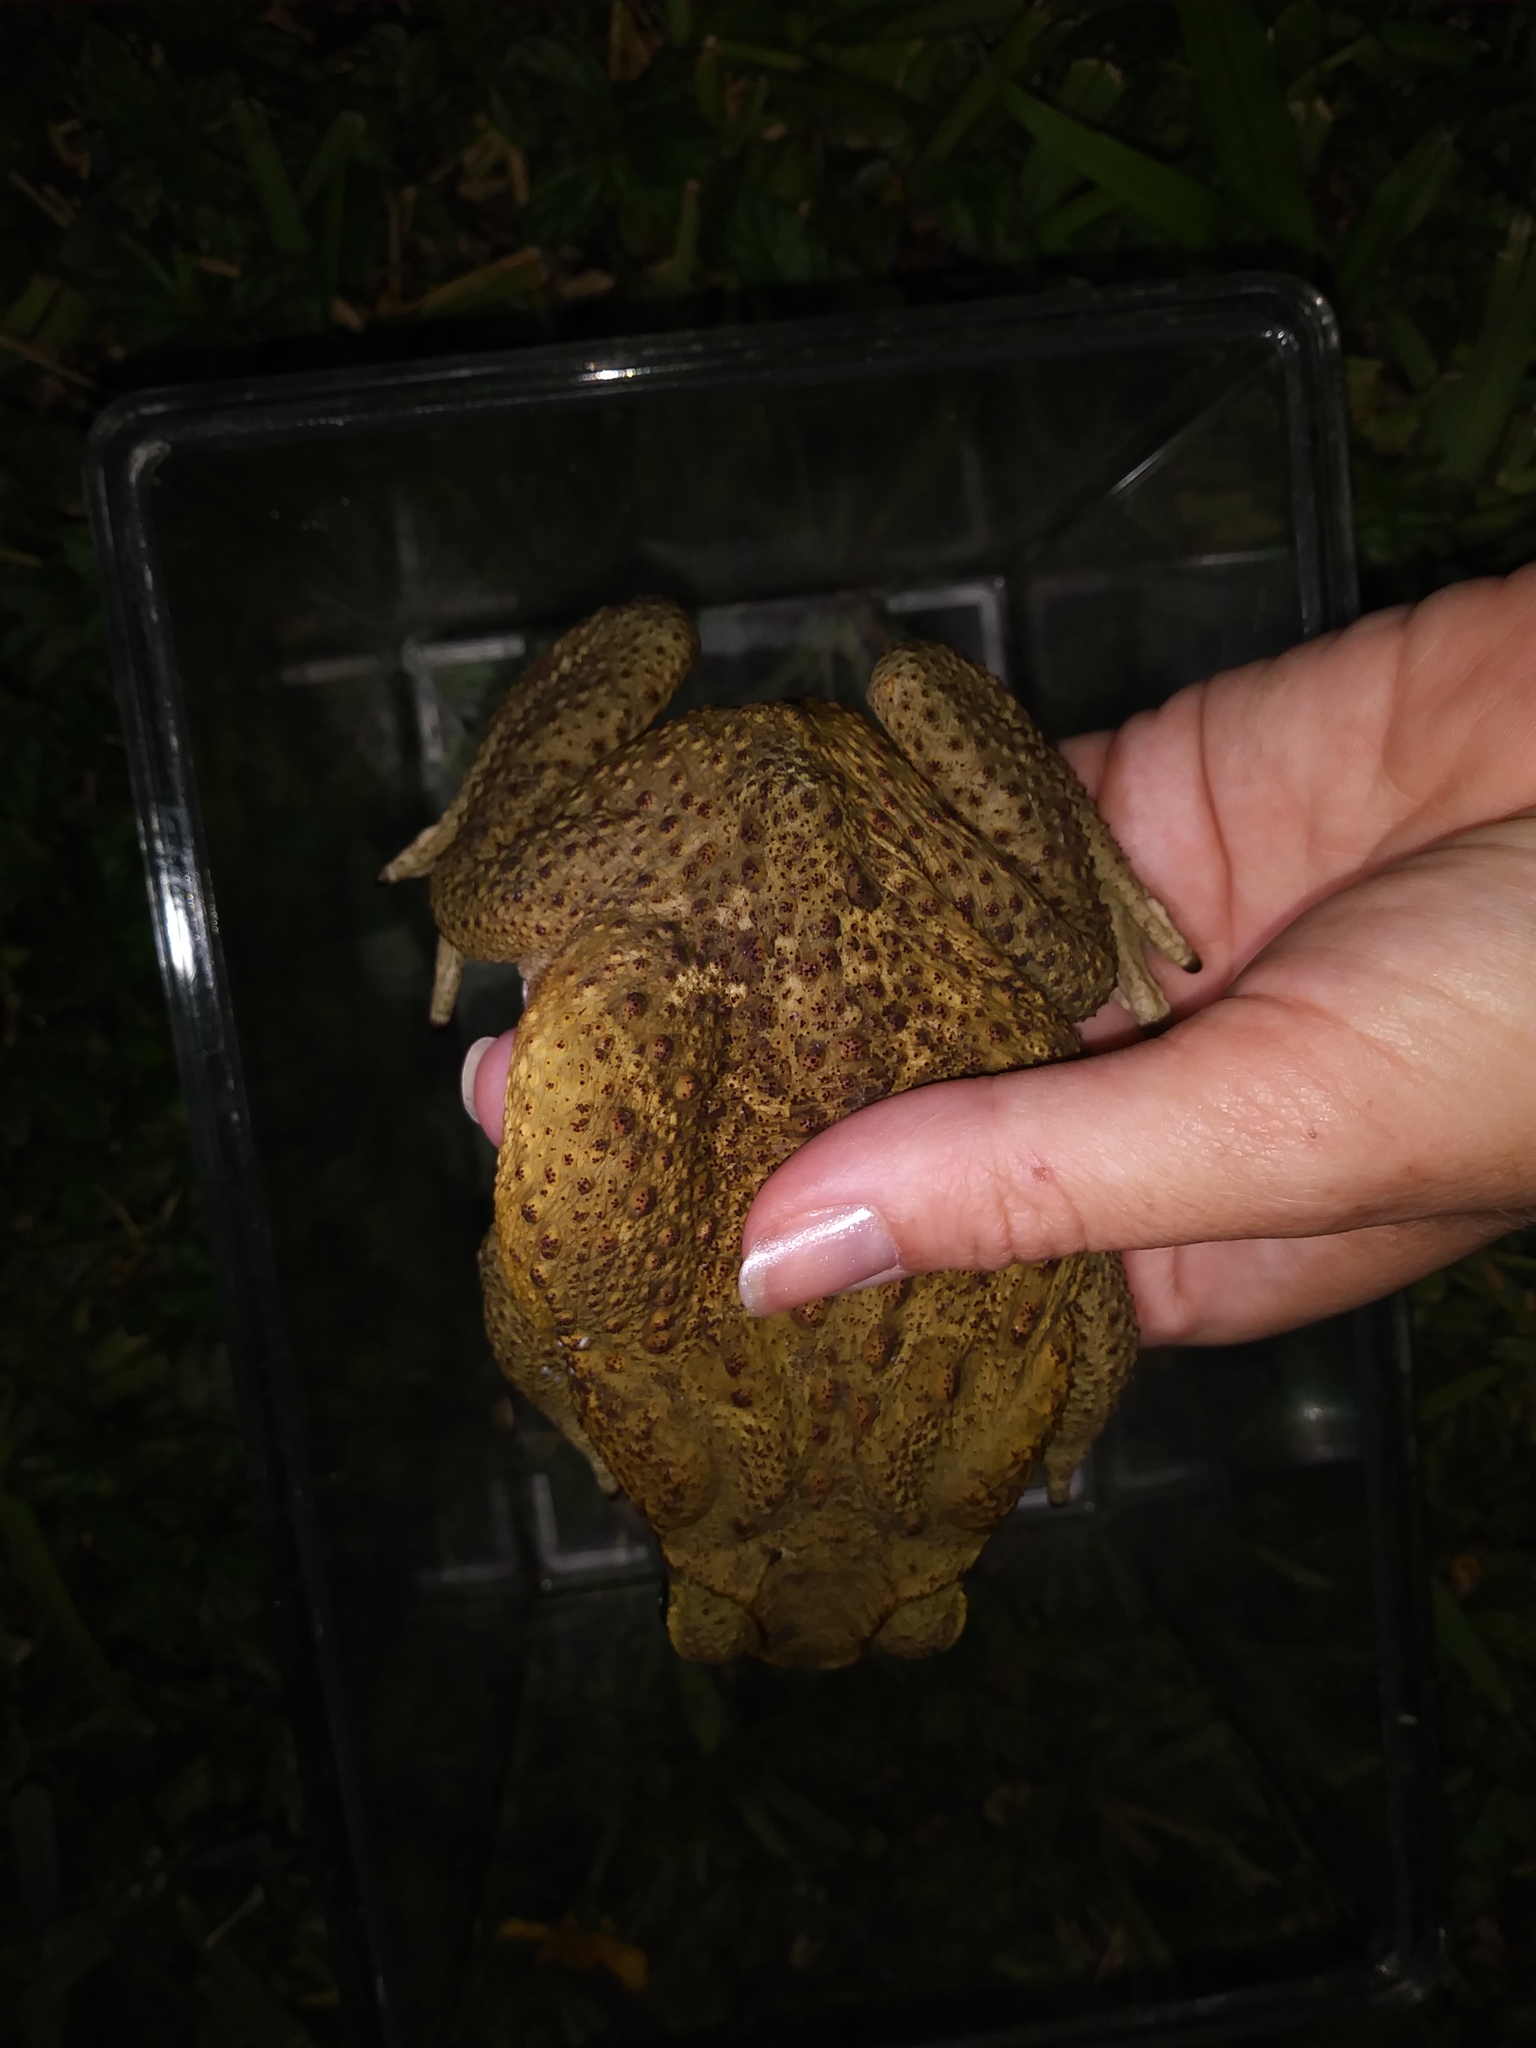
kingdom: Animalia
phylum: Chordata
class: Amphibia
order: Anura
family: Bufonidae
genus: Rhinella
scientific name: Rhinella horribilis
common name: Mesoamerican cane toad
